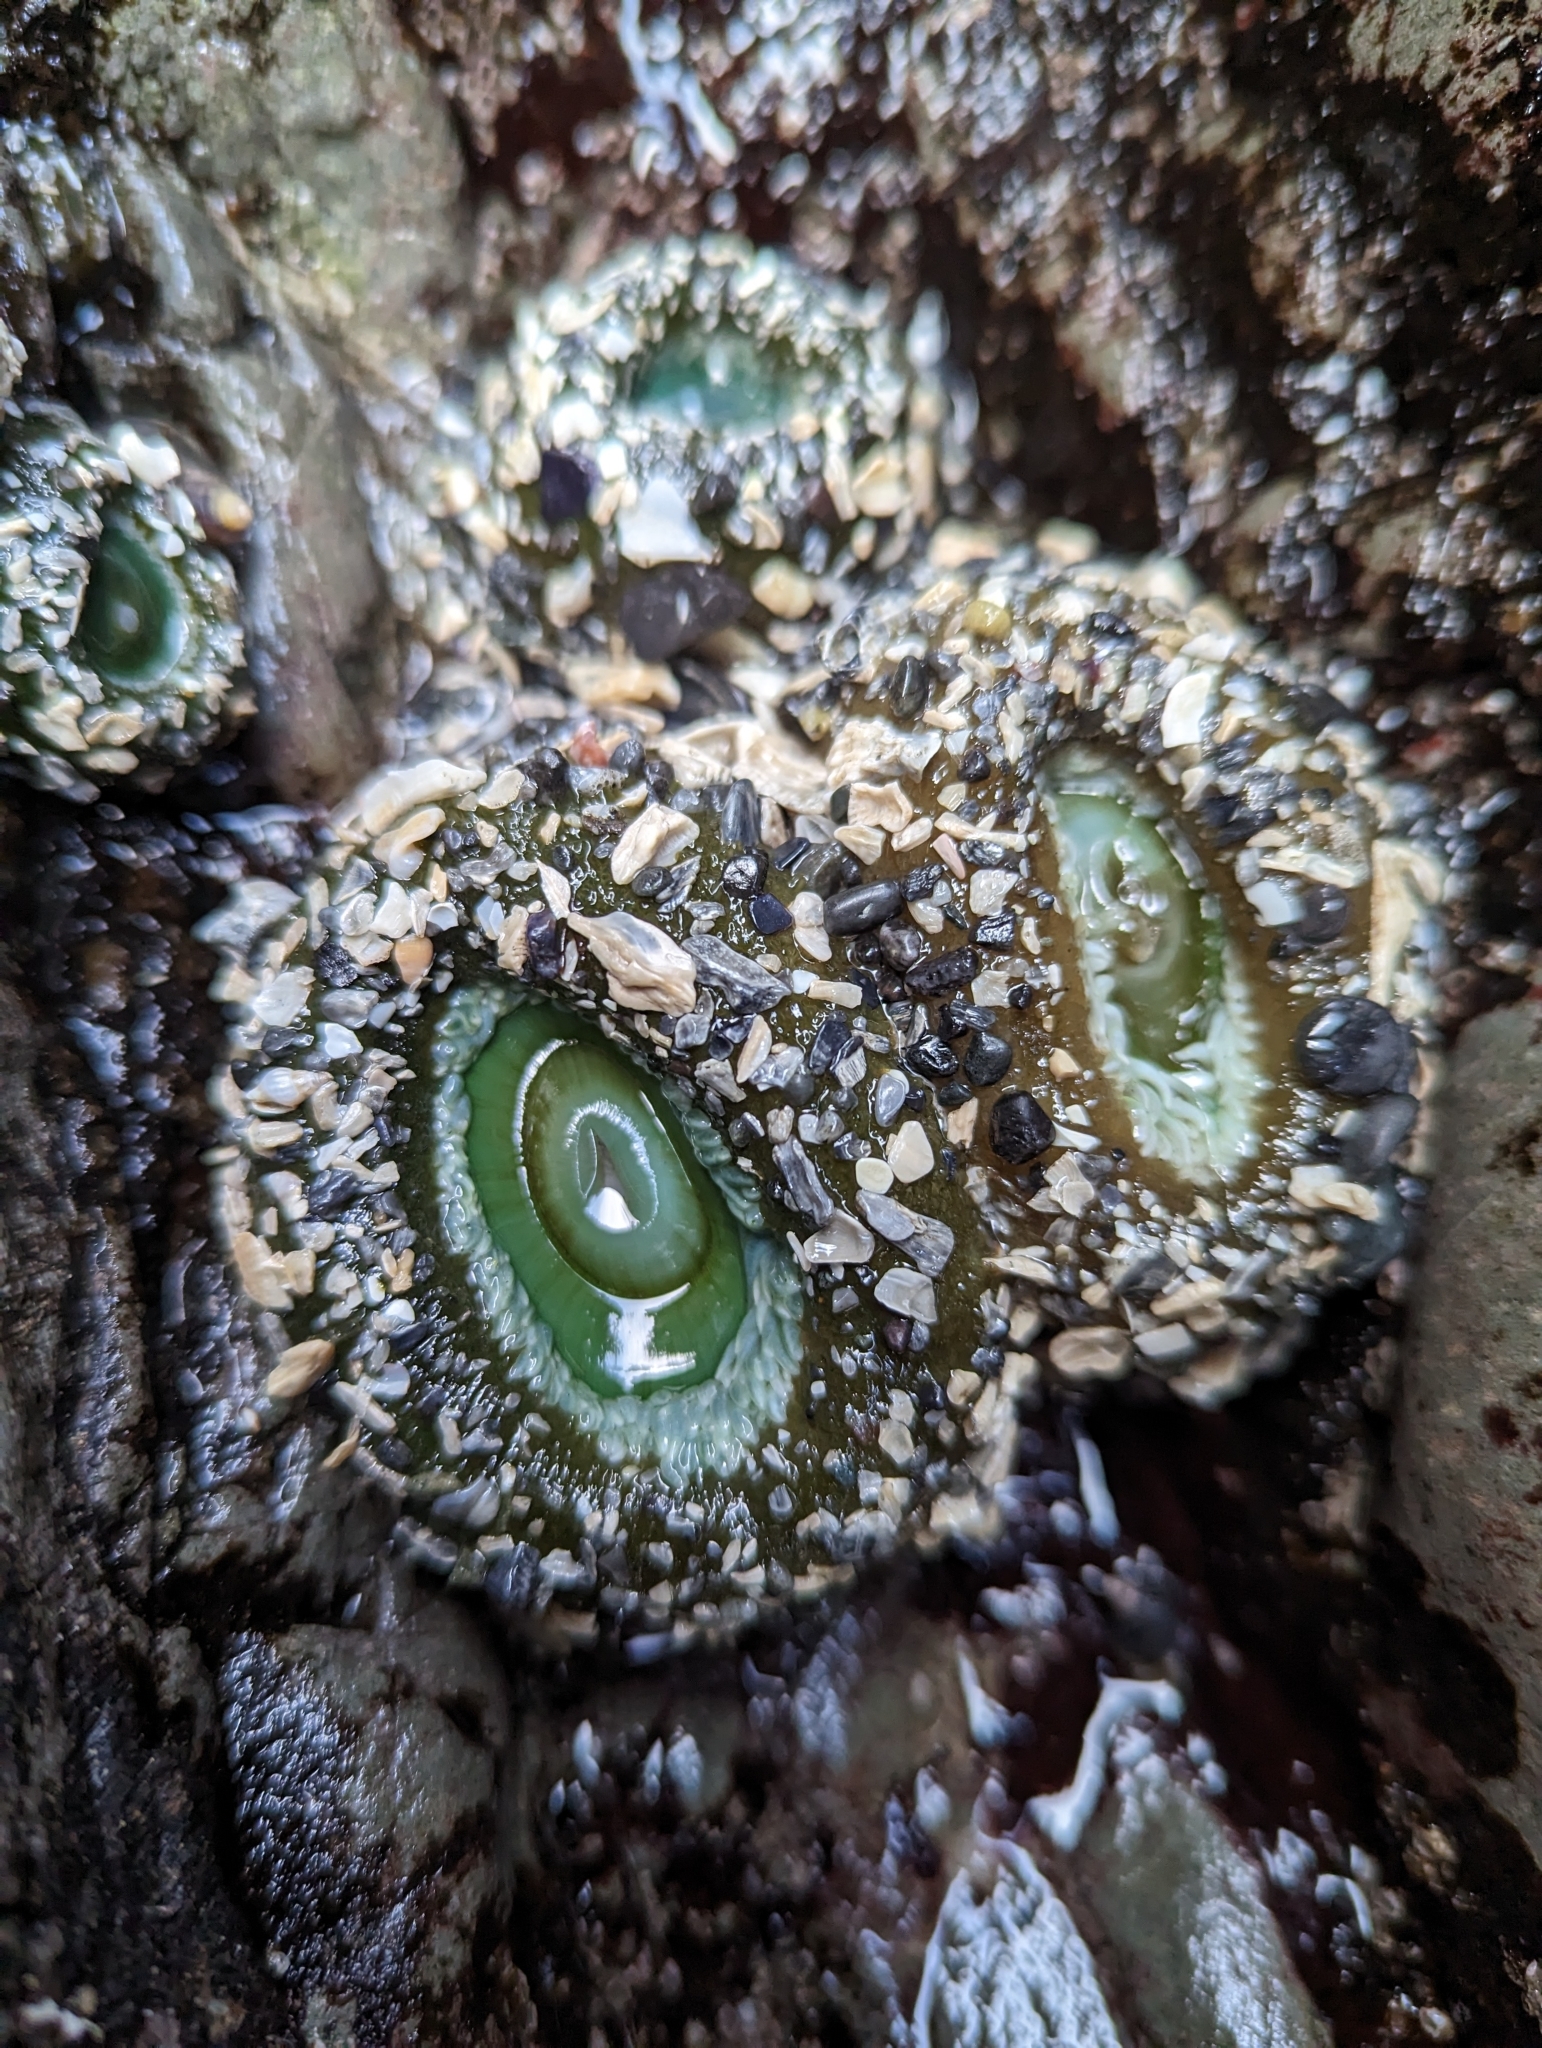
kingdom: Animalia
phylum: Cnidaria
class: Anthozoa
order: Actiniaria
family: Actiniidae
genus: Anthopleura
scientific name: Anthopleura xanthogrammica
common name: Giant green anemone
